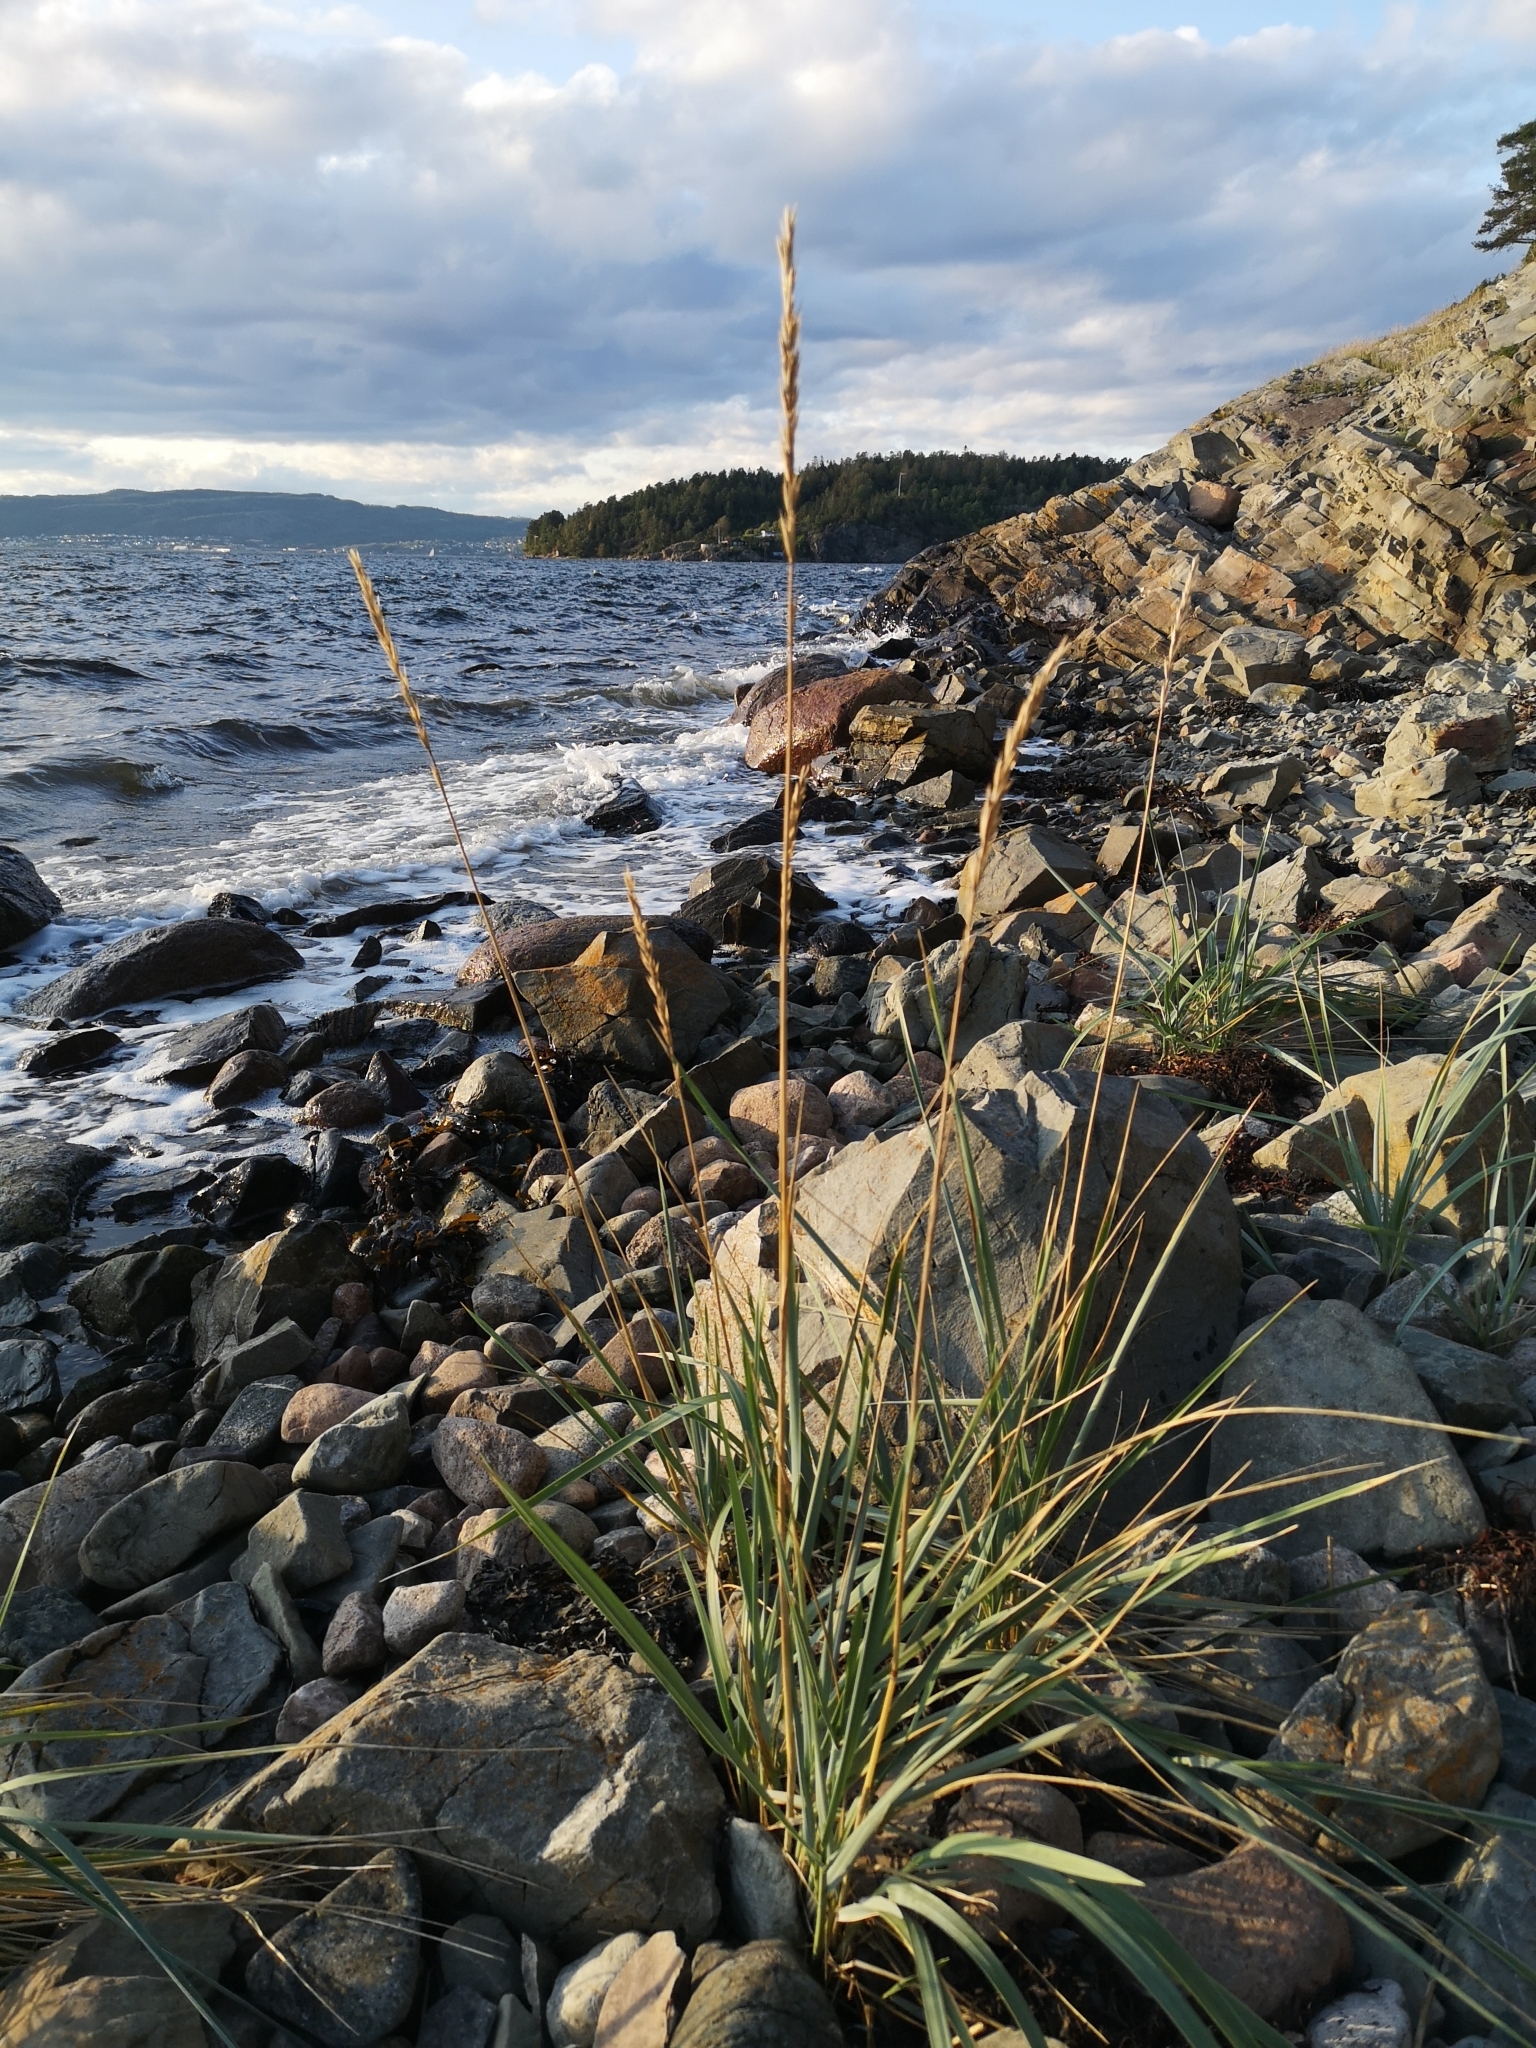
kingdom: Plantae
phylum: Tracheophyta
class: Liliopsida
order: Poales
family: Poaceae
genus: Leymus
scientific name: Leymus arenarius
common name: Lyme-grass
